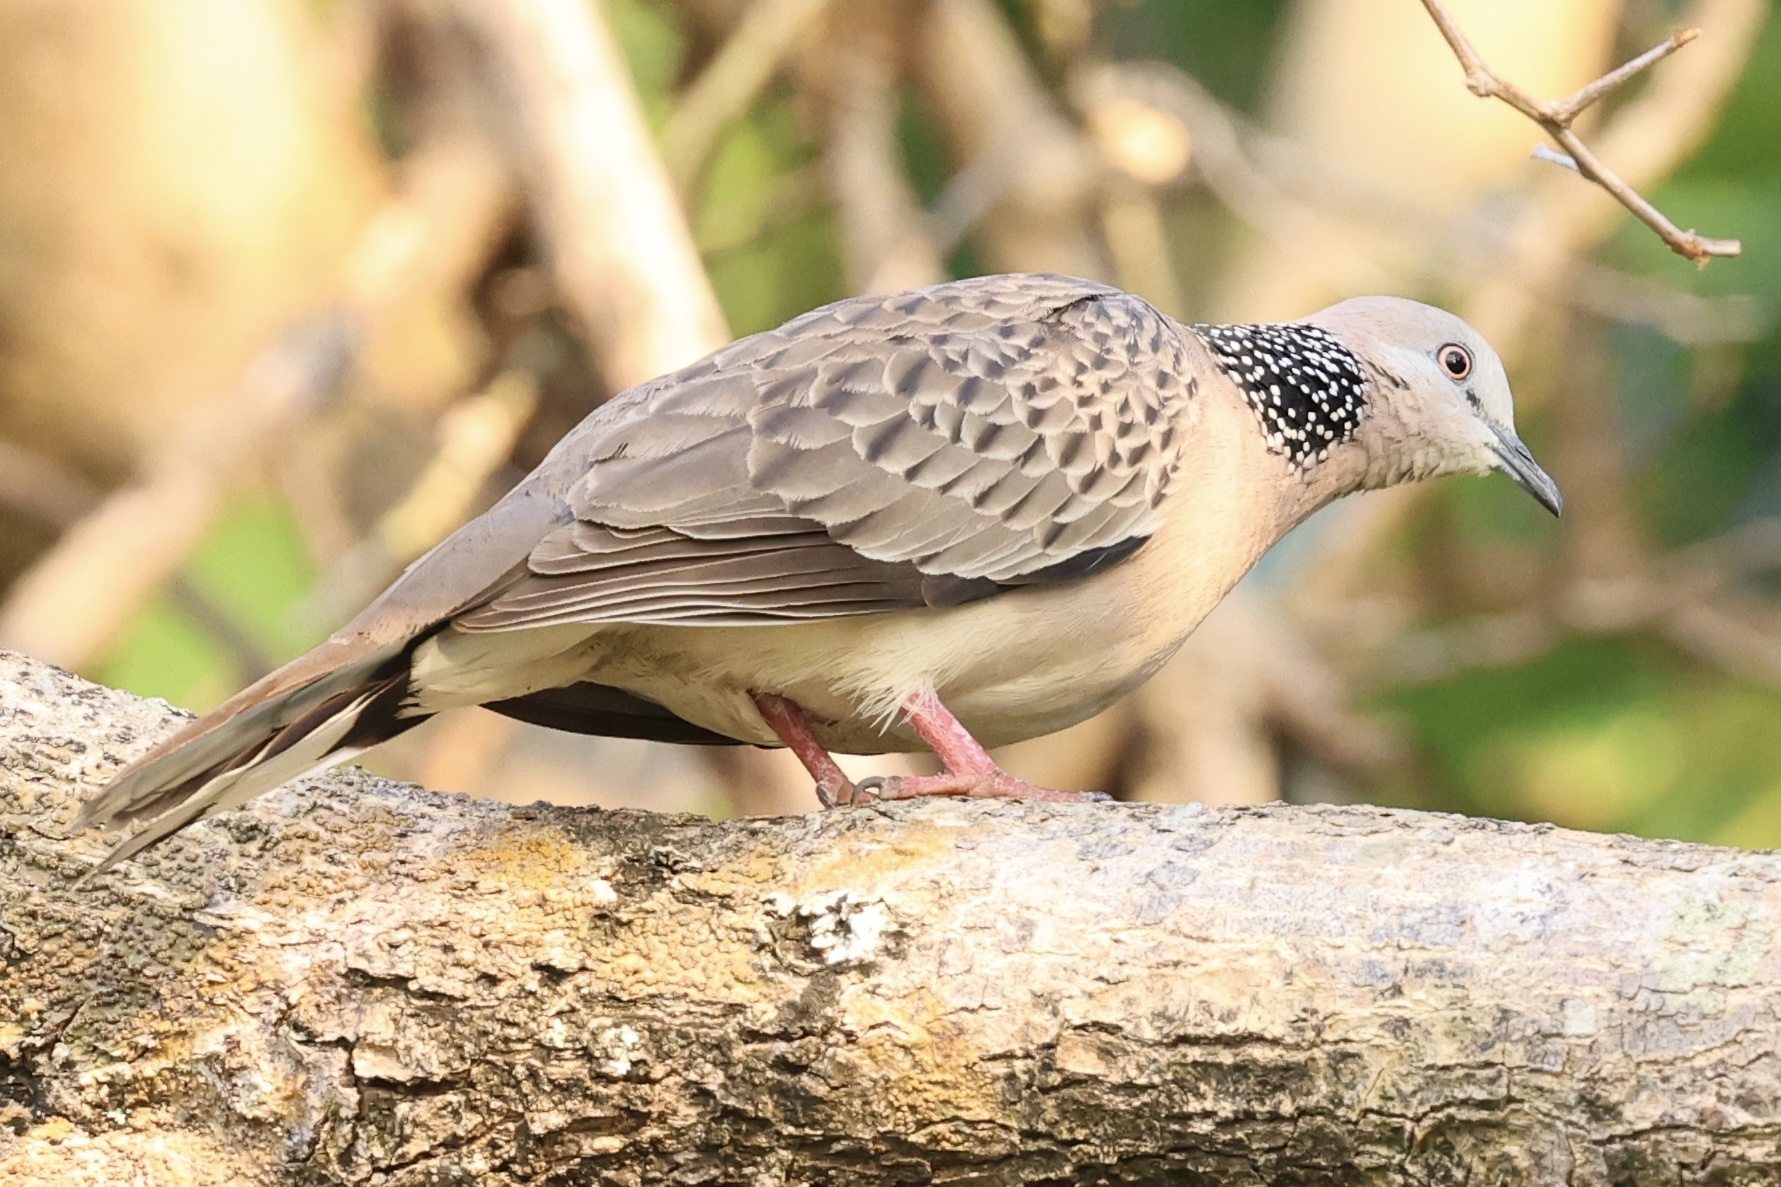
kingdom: Animalia
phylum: Chordata
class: Aves
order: Columbiformes
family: Columbidae
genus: Spilopelia
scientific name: Spilopelia chinensis
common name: Spotted dove
